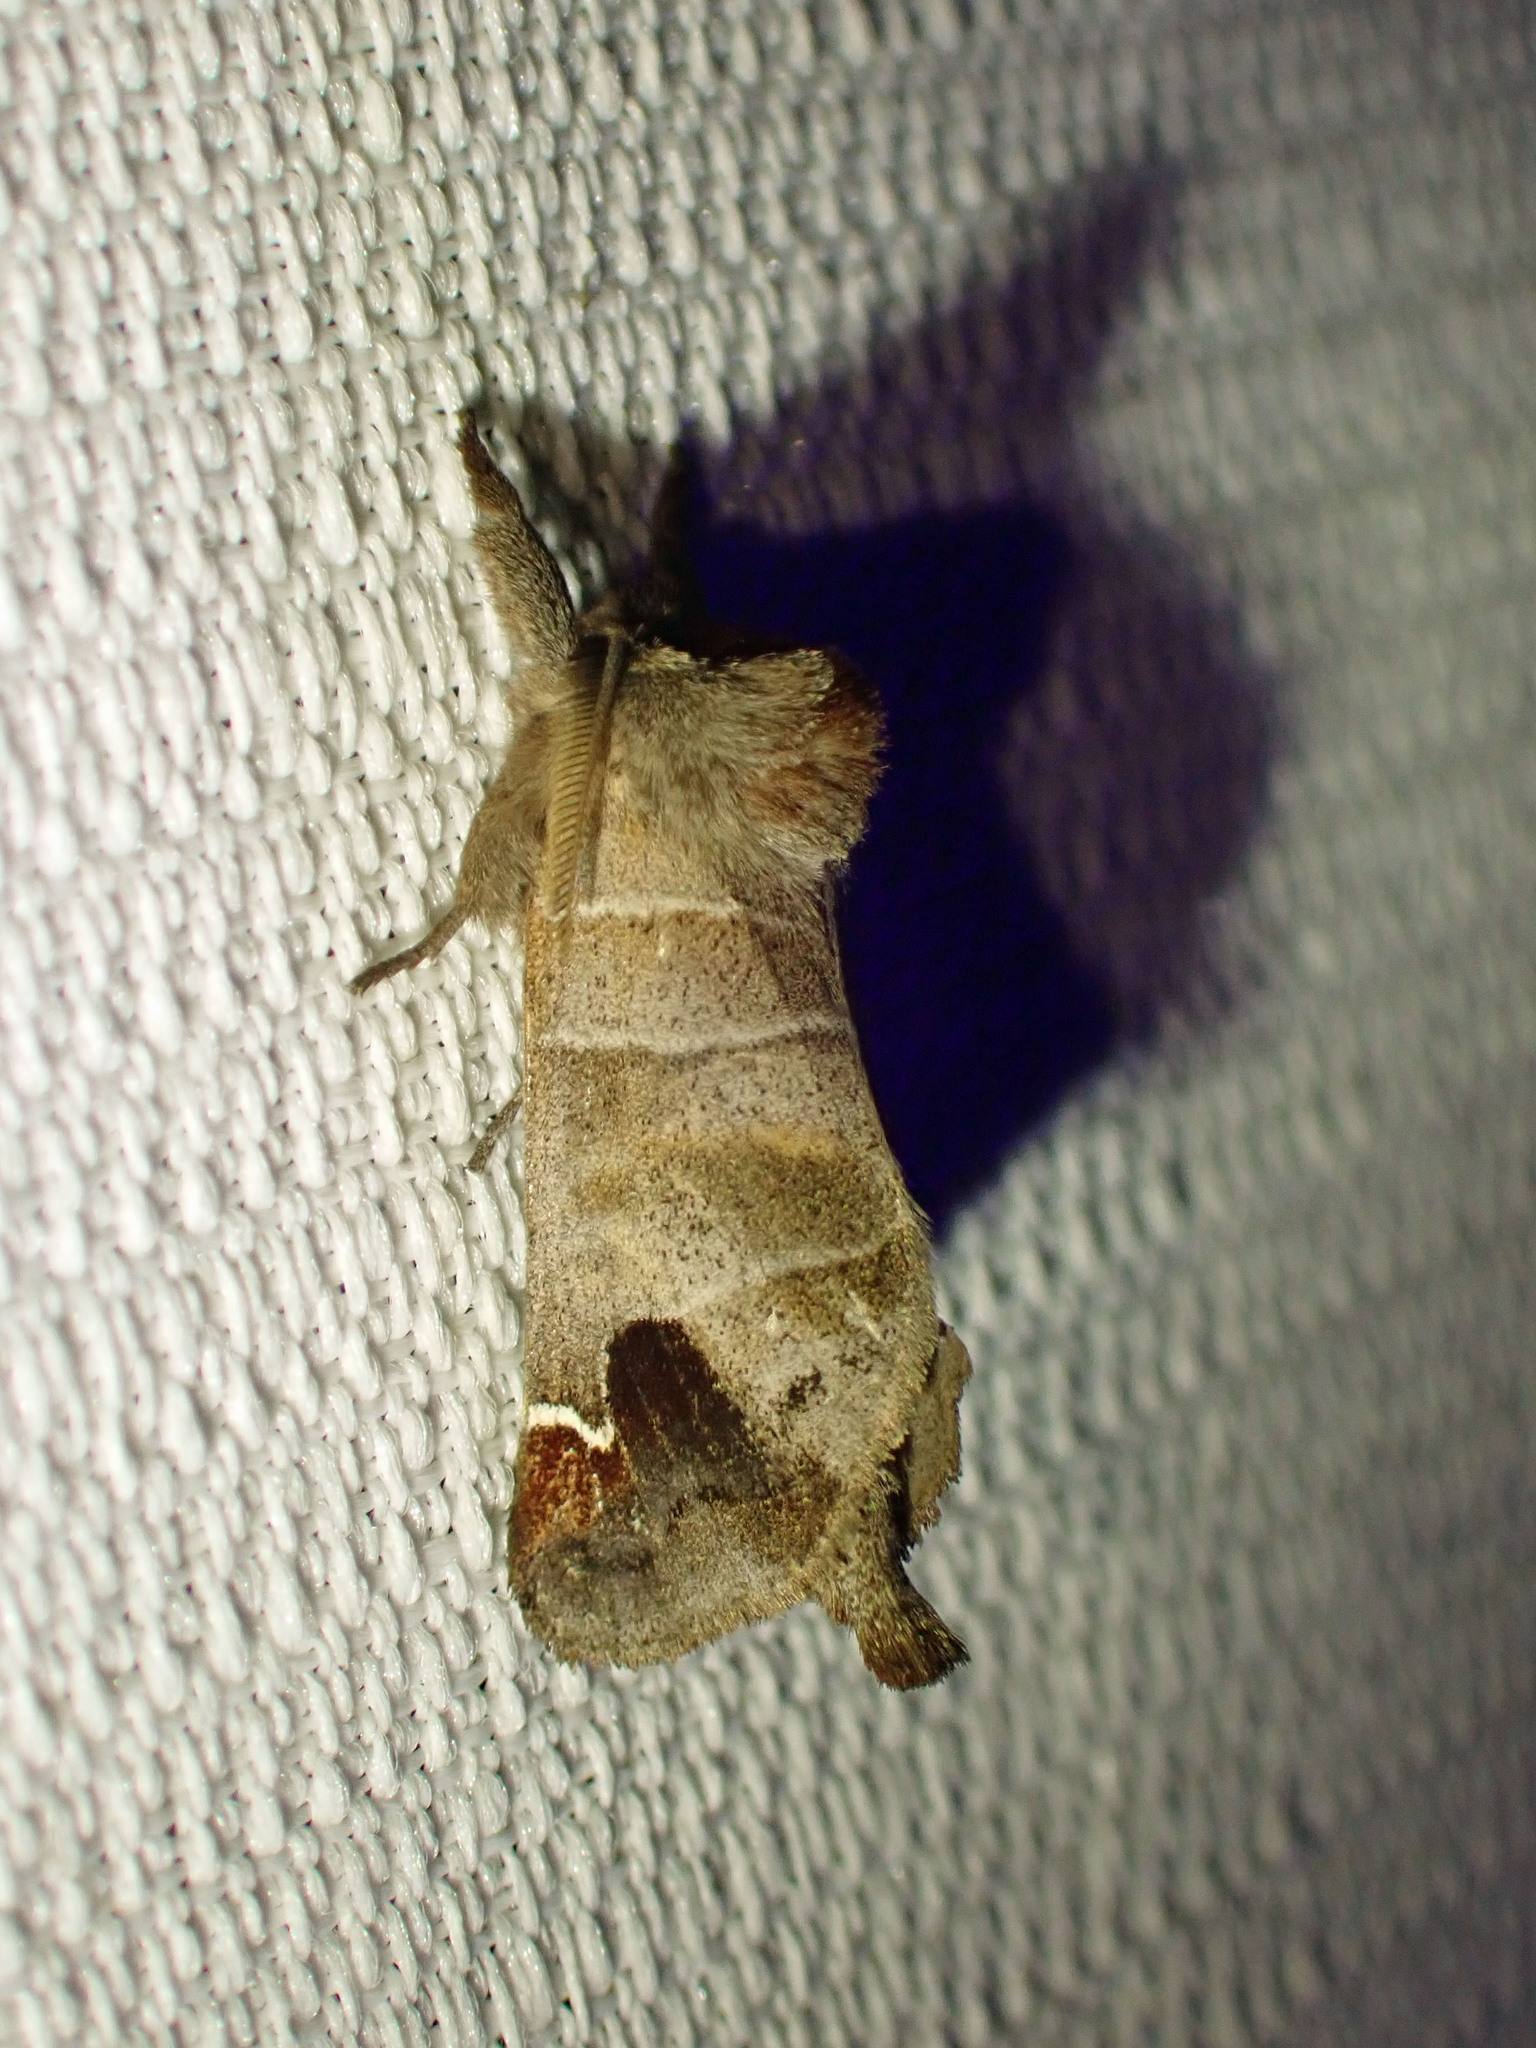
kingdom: Animalia
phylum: Arthropoda
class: Insecta
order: Lepidoptera
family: Notodontidae
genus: Clostera
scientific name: Clostera albosigma
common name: Sigmoid prominent
